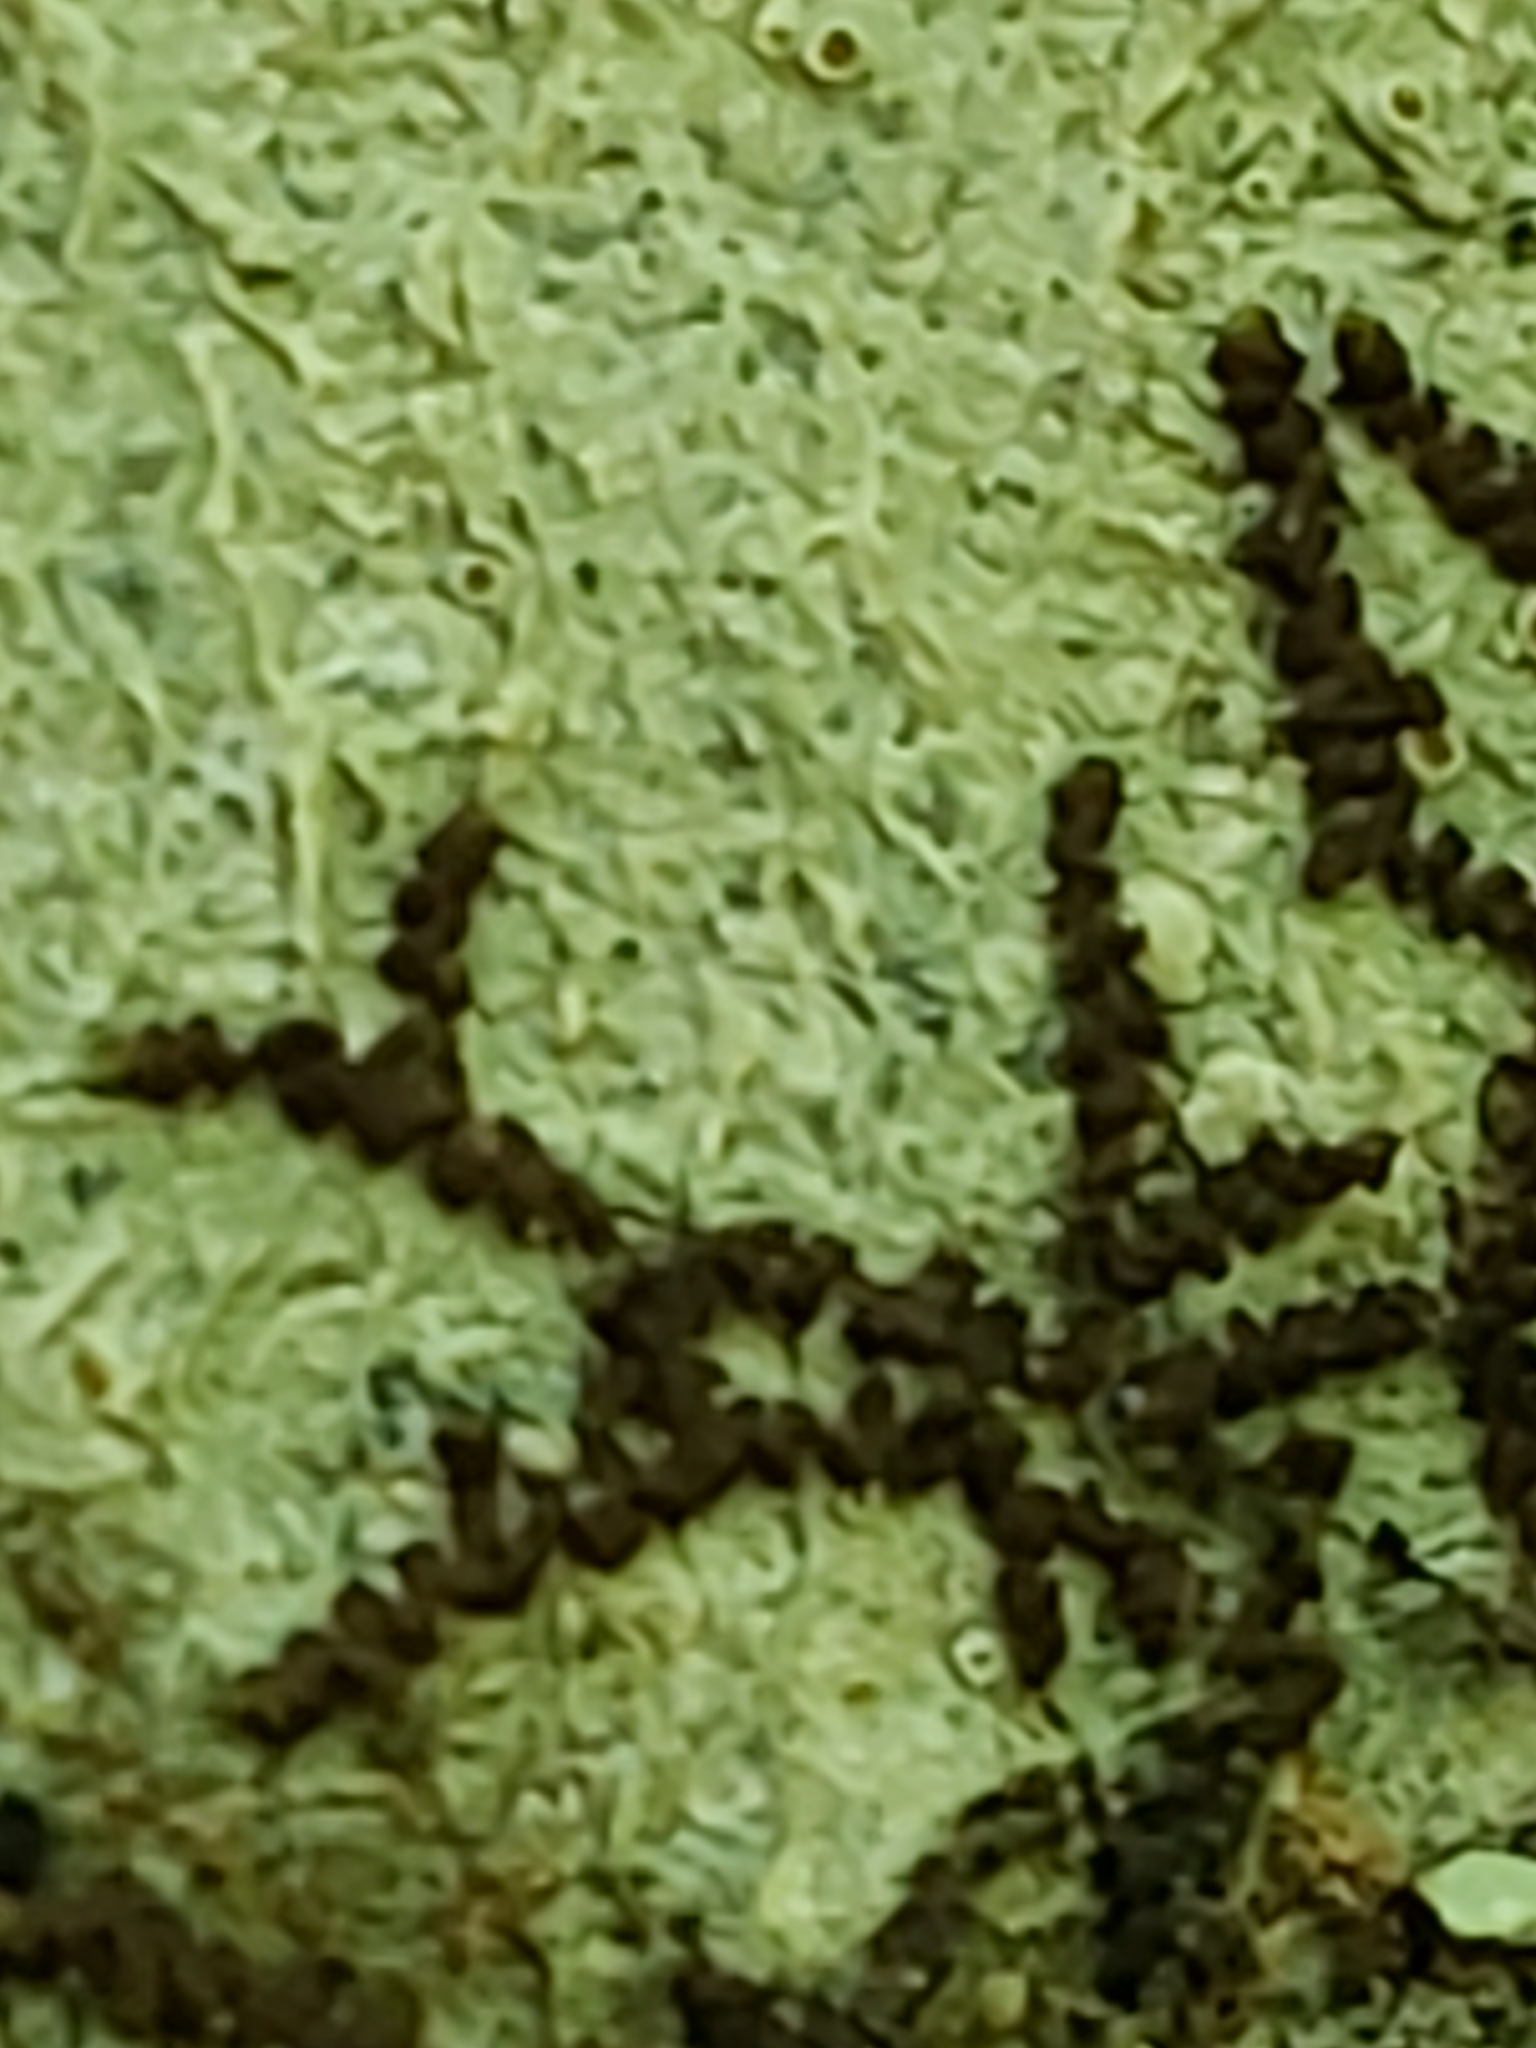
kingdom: Plantae
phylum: Marchantiophyta
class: Jungermanniopsida
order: Porellales
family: Frullaniaceae
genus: Frullania
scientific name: Frullania eboracensis
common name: New york scalewort
